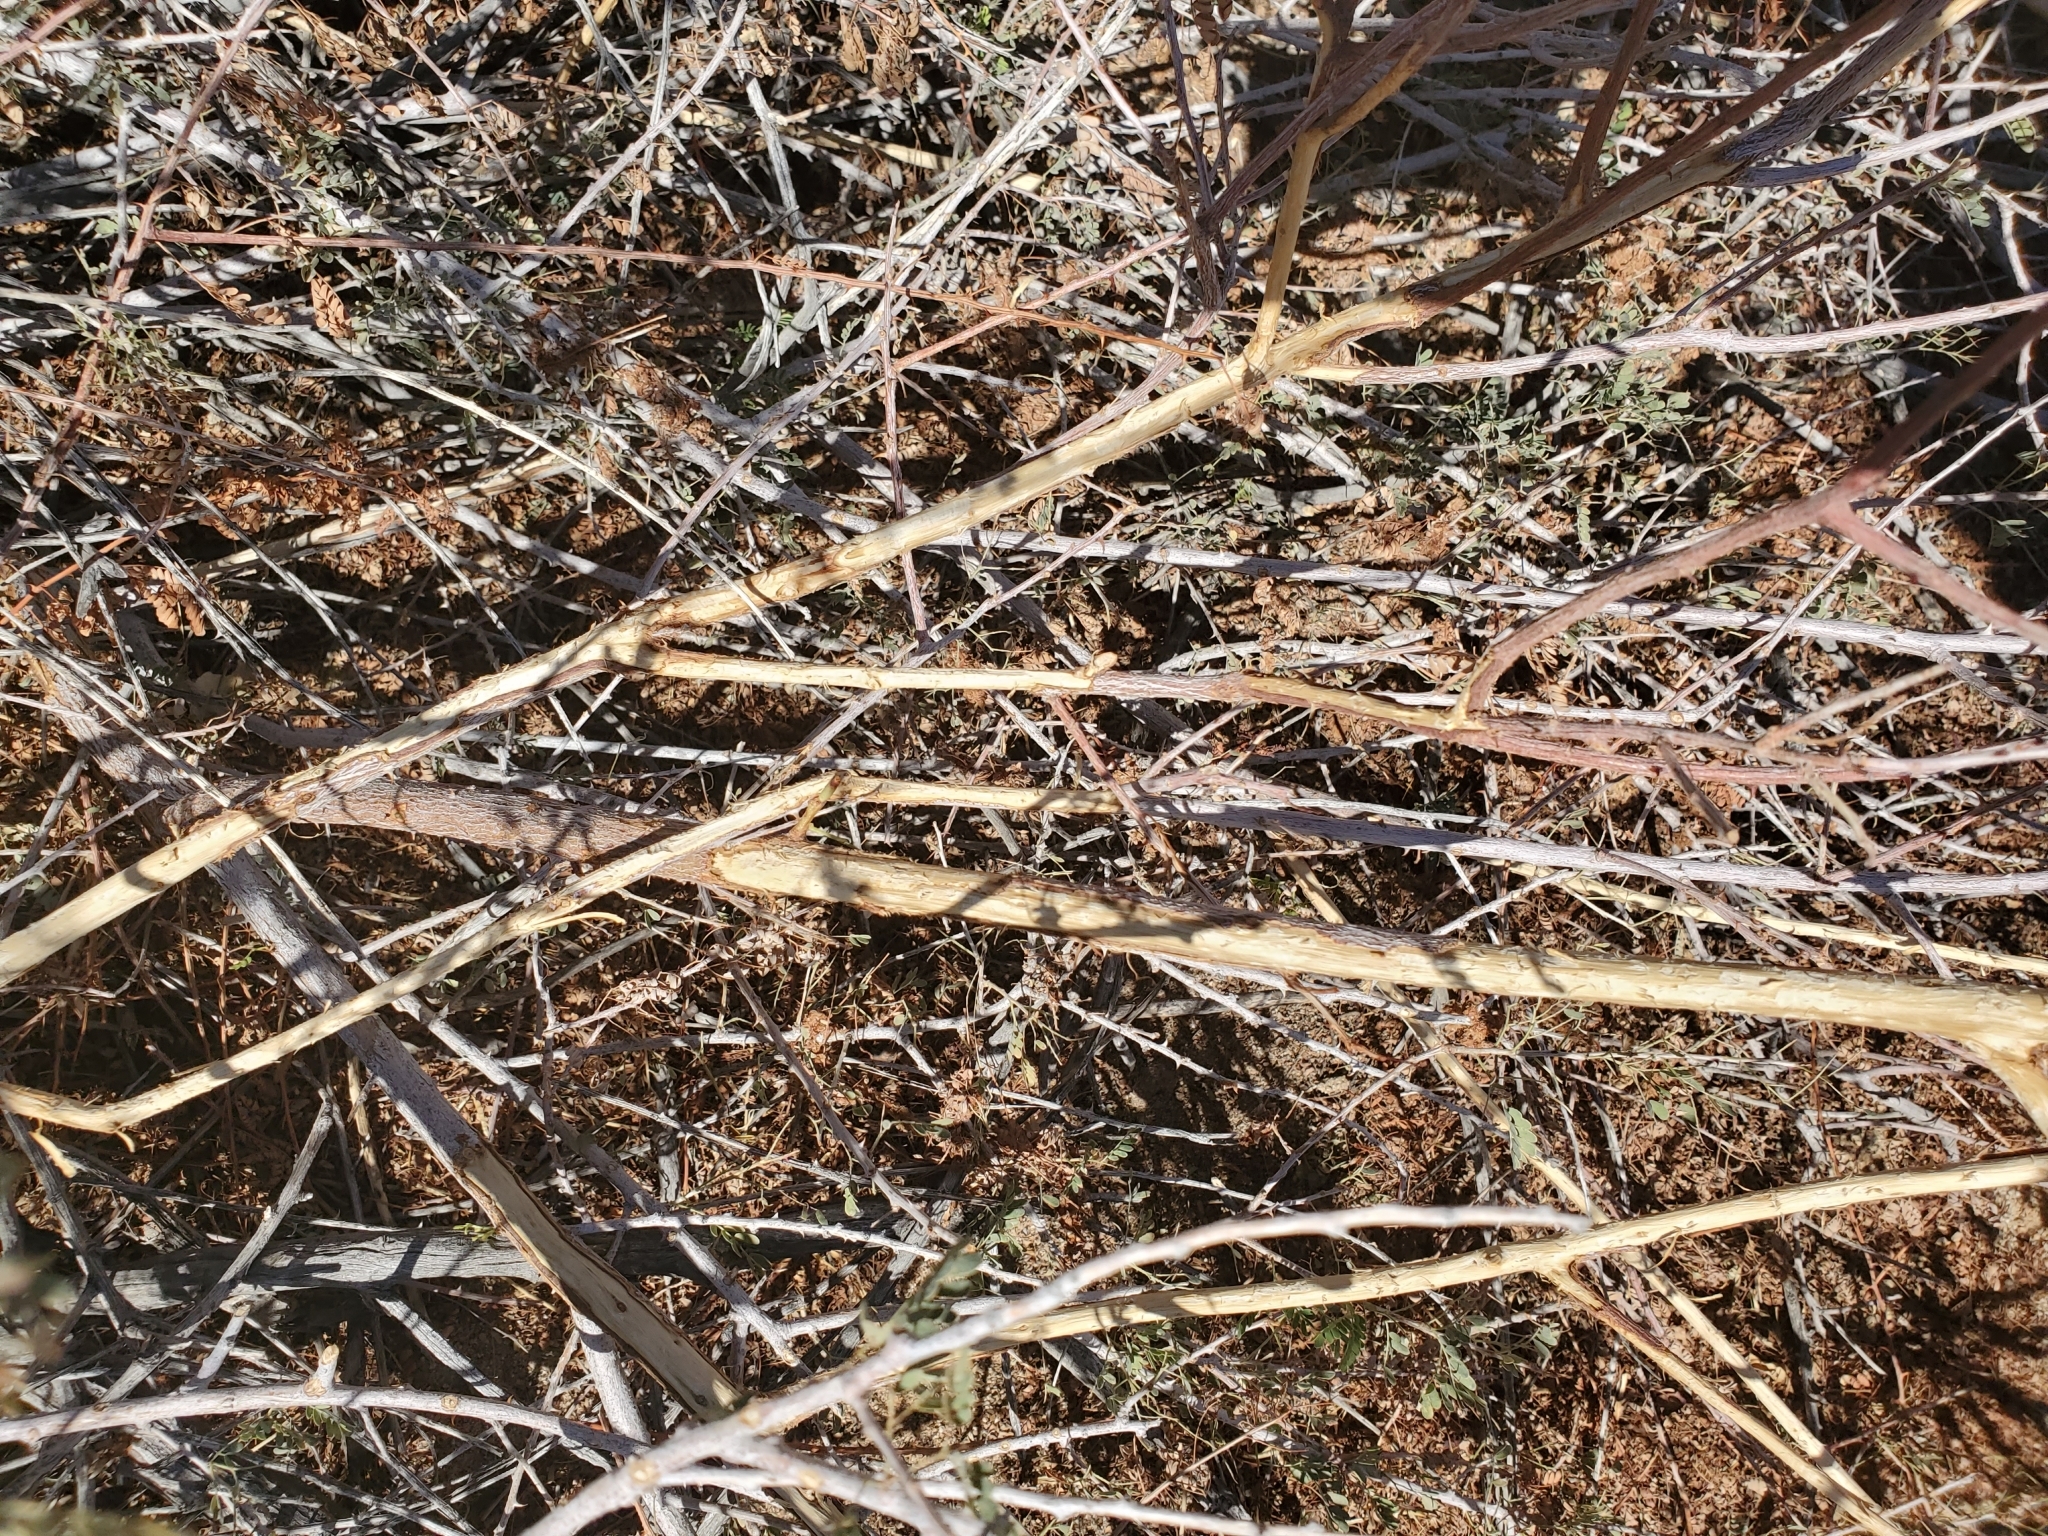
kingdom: Plantae
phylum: Tracheophyta
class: Magnoliopsida
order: Fabales
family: Fabaceae
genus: Senegalia
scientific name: Senegalia greggii
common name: Texas-mimosa
